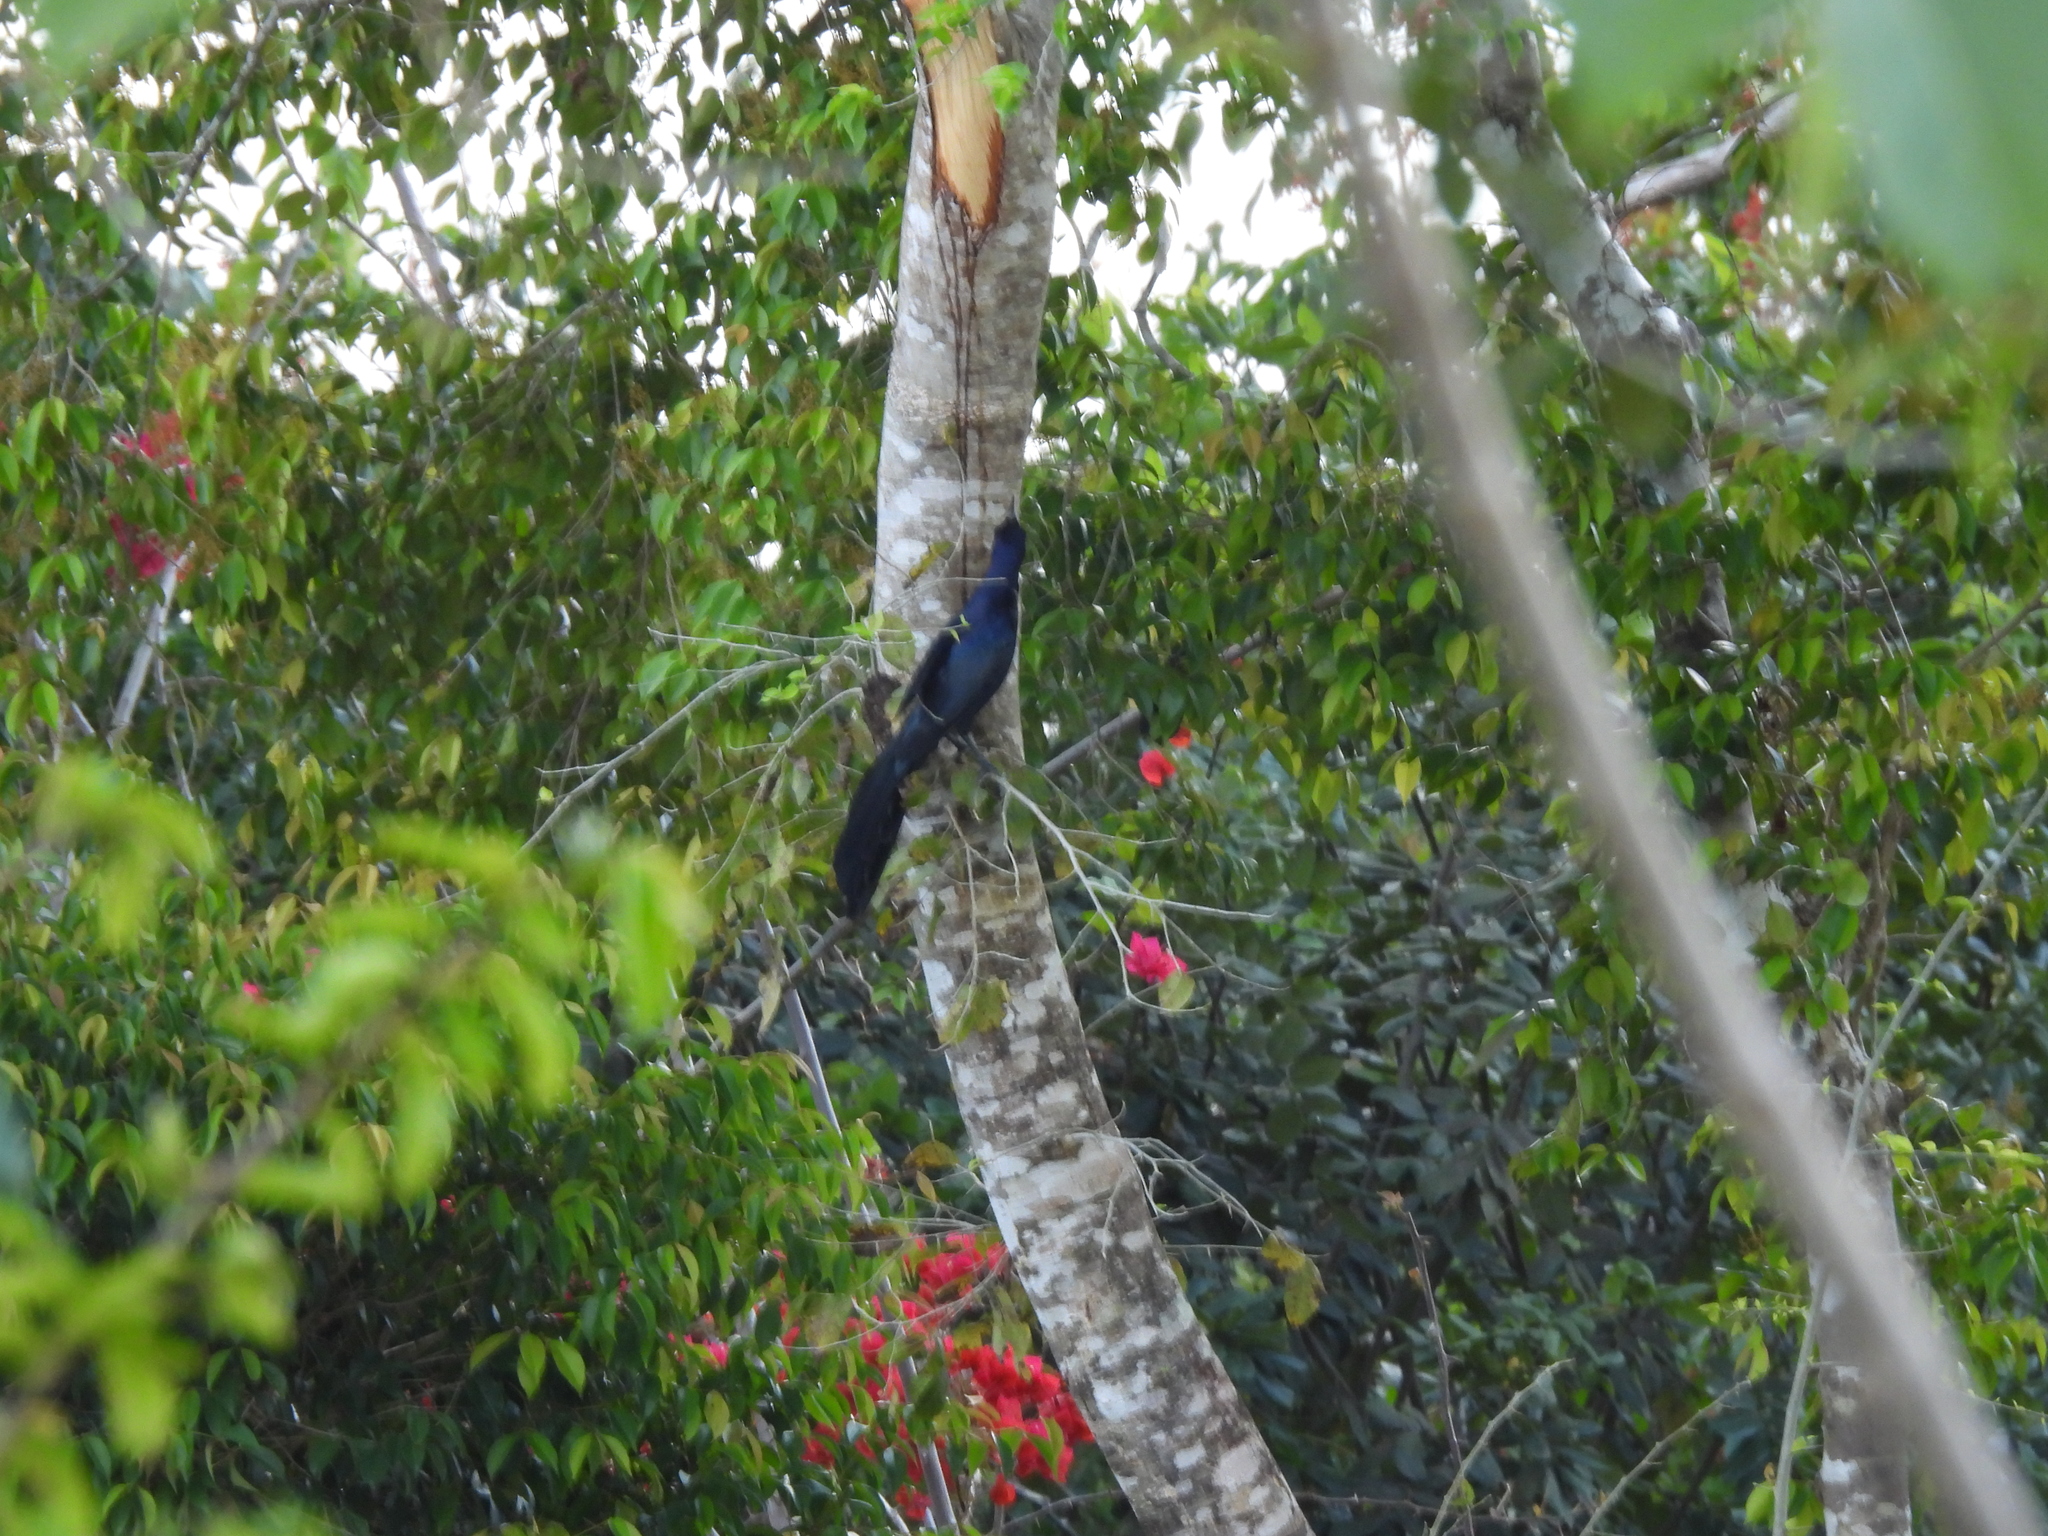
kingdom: Animalia
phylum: Chordata
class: Aves
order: Passeriformes
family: Icteridae
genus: Quiscalus
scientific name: Quiscalus mexicanus
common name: Great-tailed grackle
